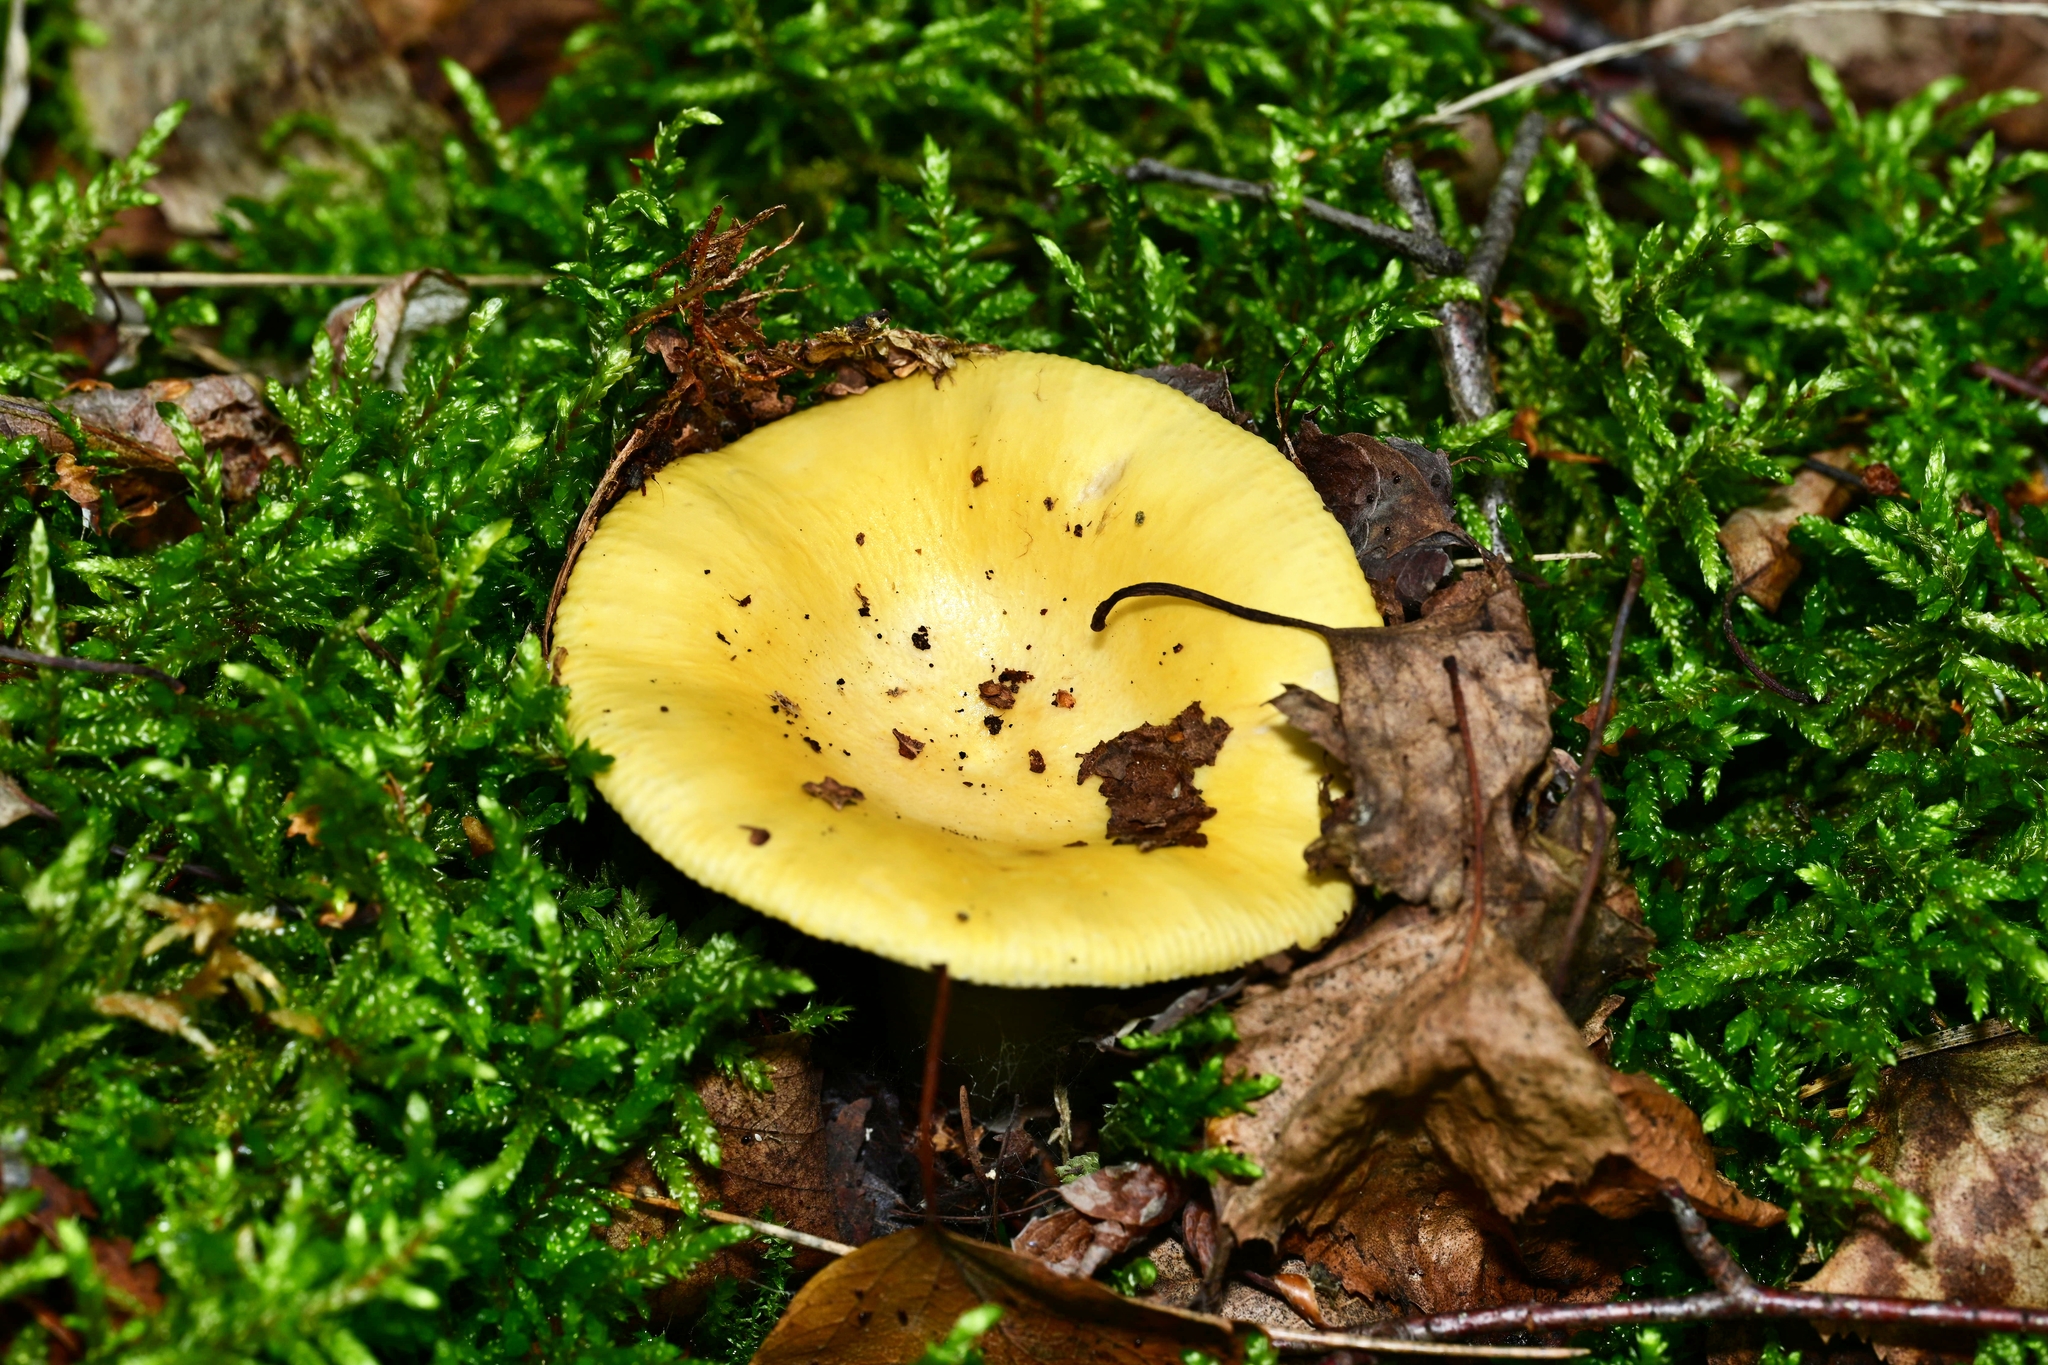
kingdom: Fungi
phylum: Basidiomycota
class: Agaricomycetes
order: Russulales
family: Russulaceae
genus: Russula
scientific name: Russula claroflava
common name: The yellow swamp brittlegill
